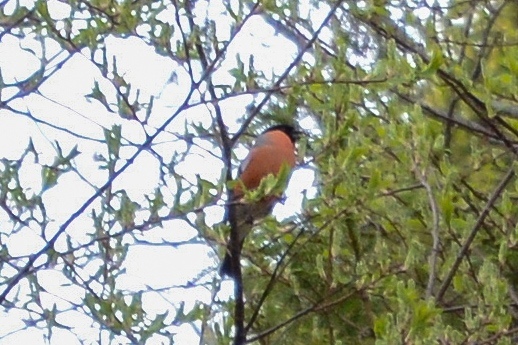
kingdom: Animalia
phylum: Chordata
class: Aves
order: Passeriformes
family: Fringillidae
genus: Pyrrhula
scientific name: Pyrrhula pyrrhula
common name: Eurasian bullfinch
